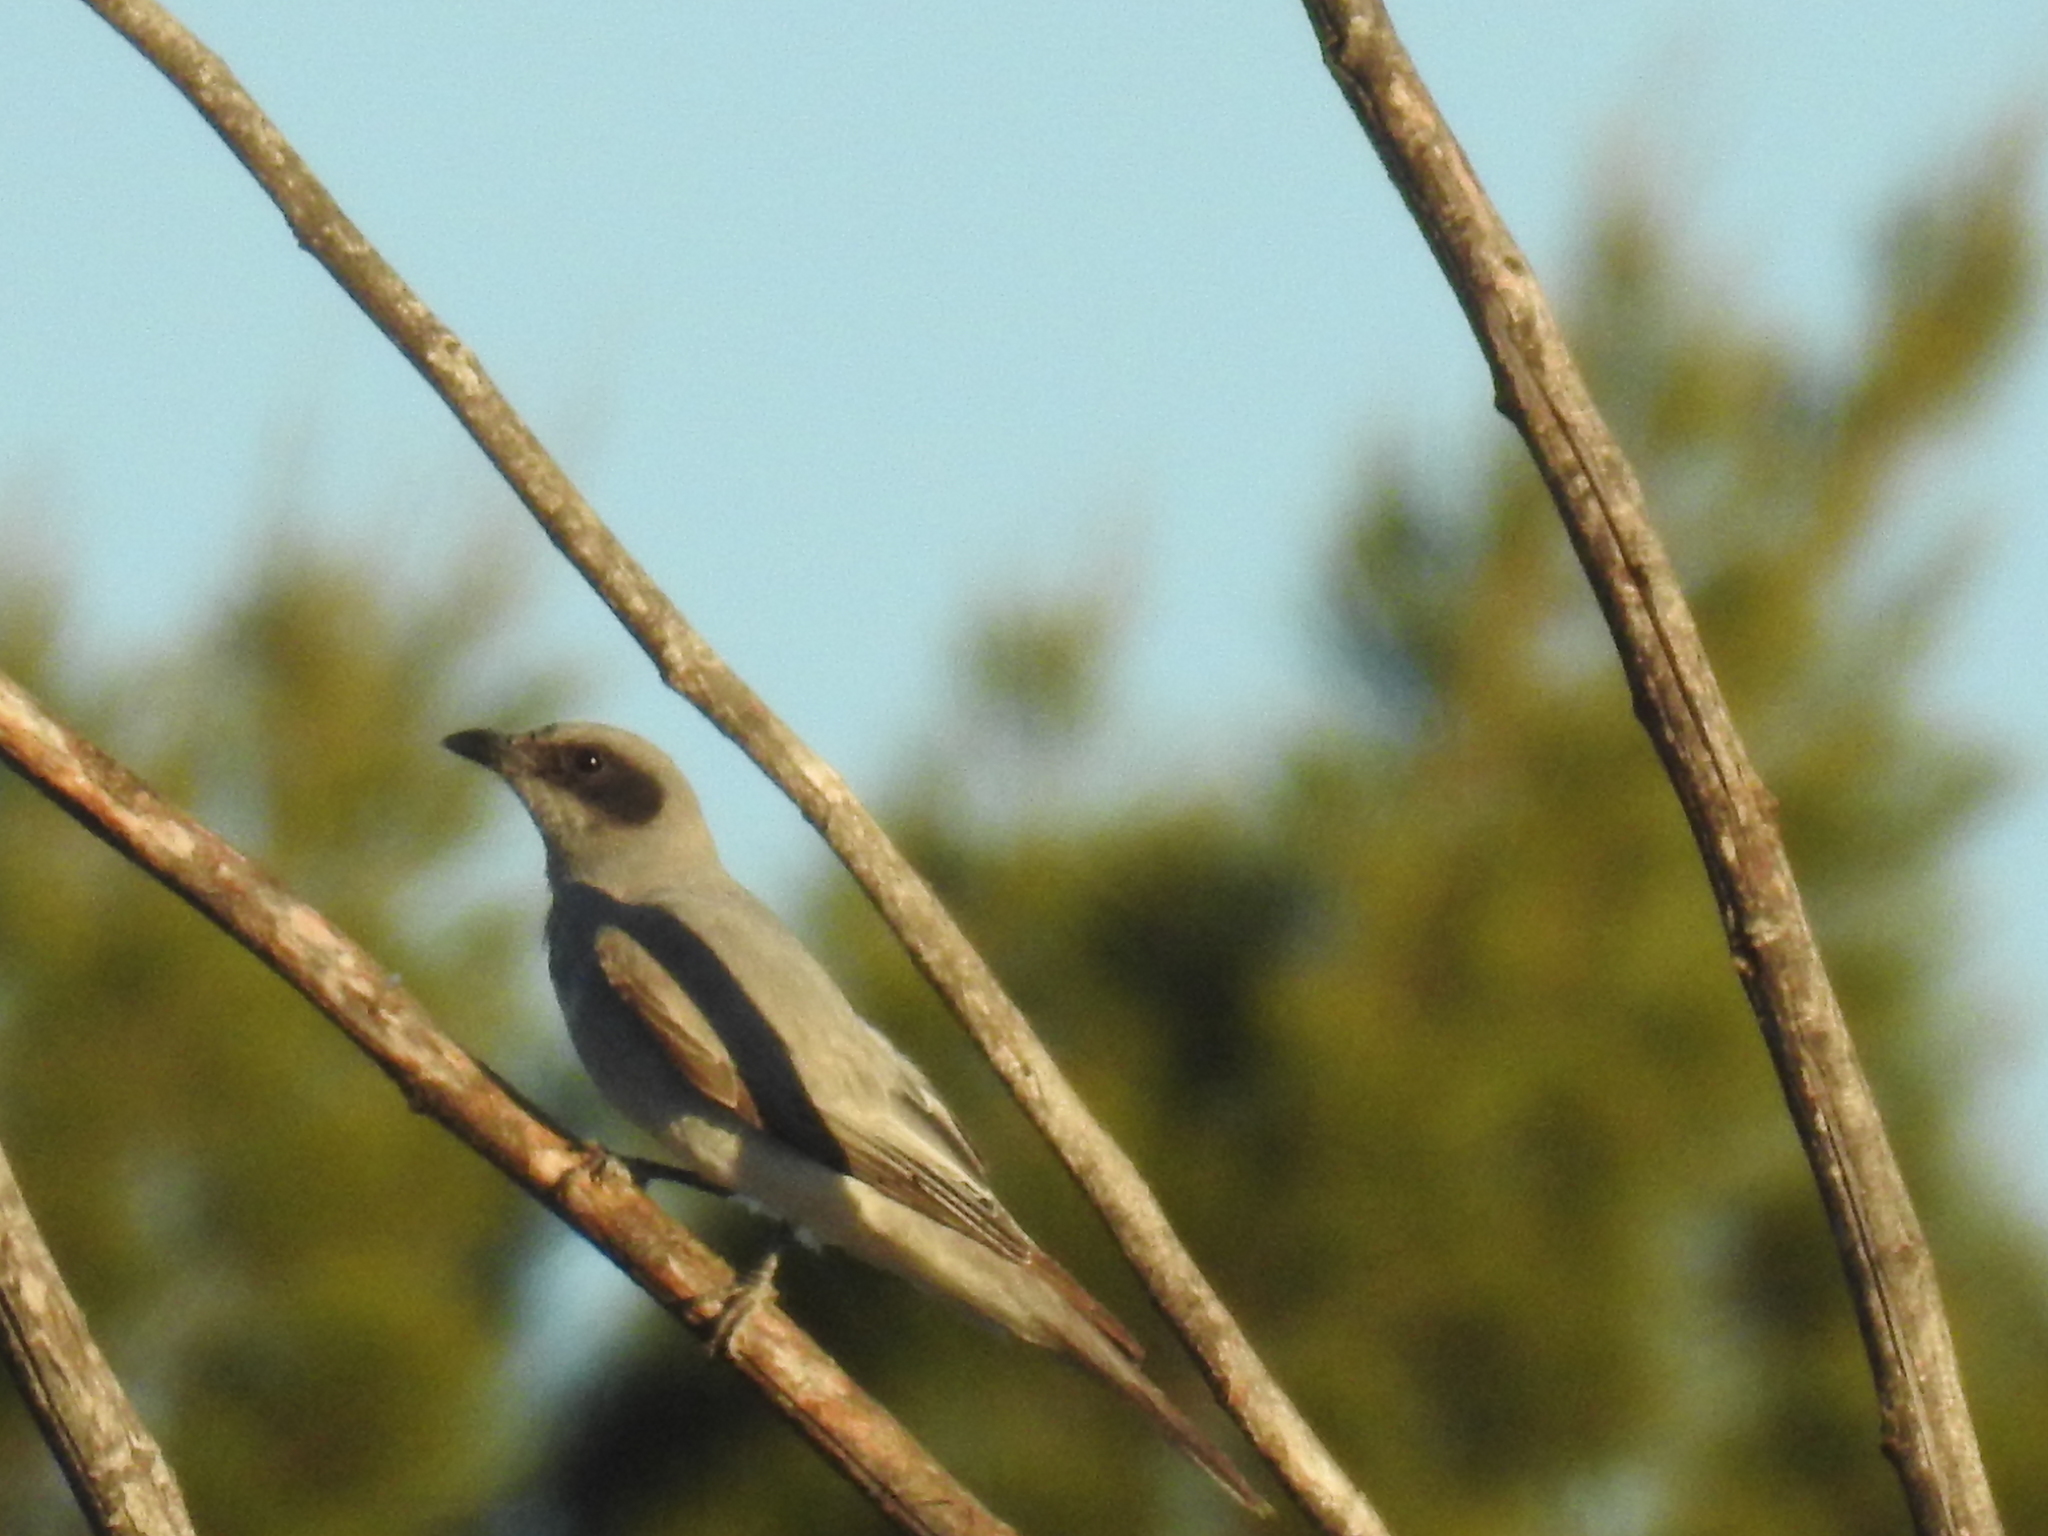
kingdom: Animalia
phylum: Chordata
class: Aves
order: Passeriformes
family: Campephagidae
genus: Coracina
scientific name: Coracina novaehollandiae
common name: Black-faced cuckooshrike
